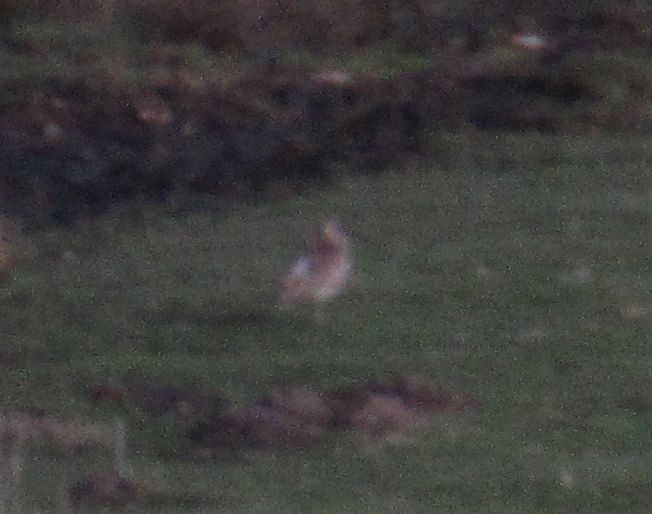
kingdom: Animalia
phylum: Chordata
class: Aves
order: Charadriiformes
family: Scolopacidae
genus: Numenius
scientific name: Numenius arquata
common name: Eurasian curlew
